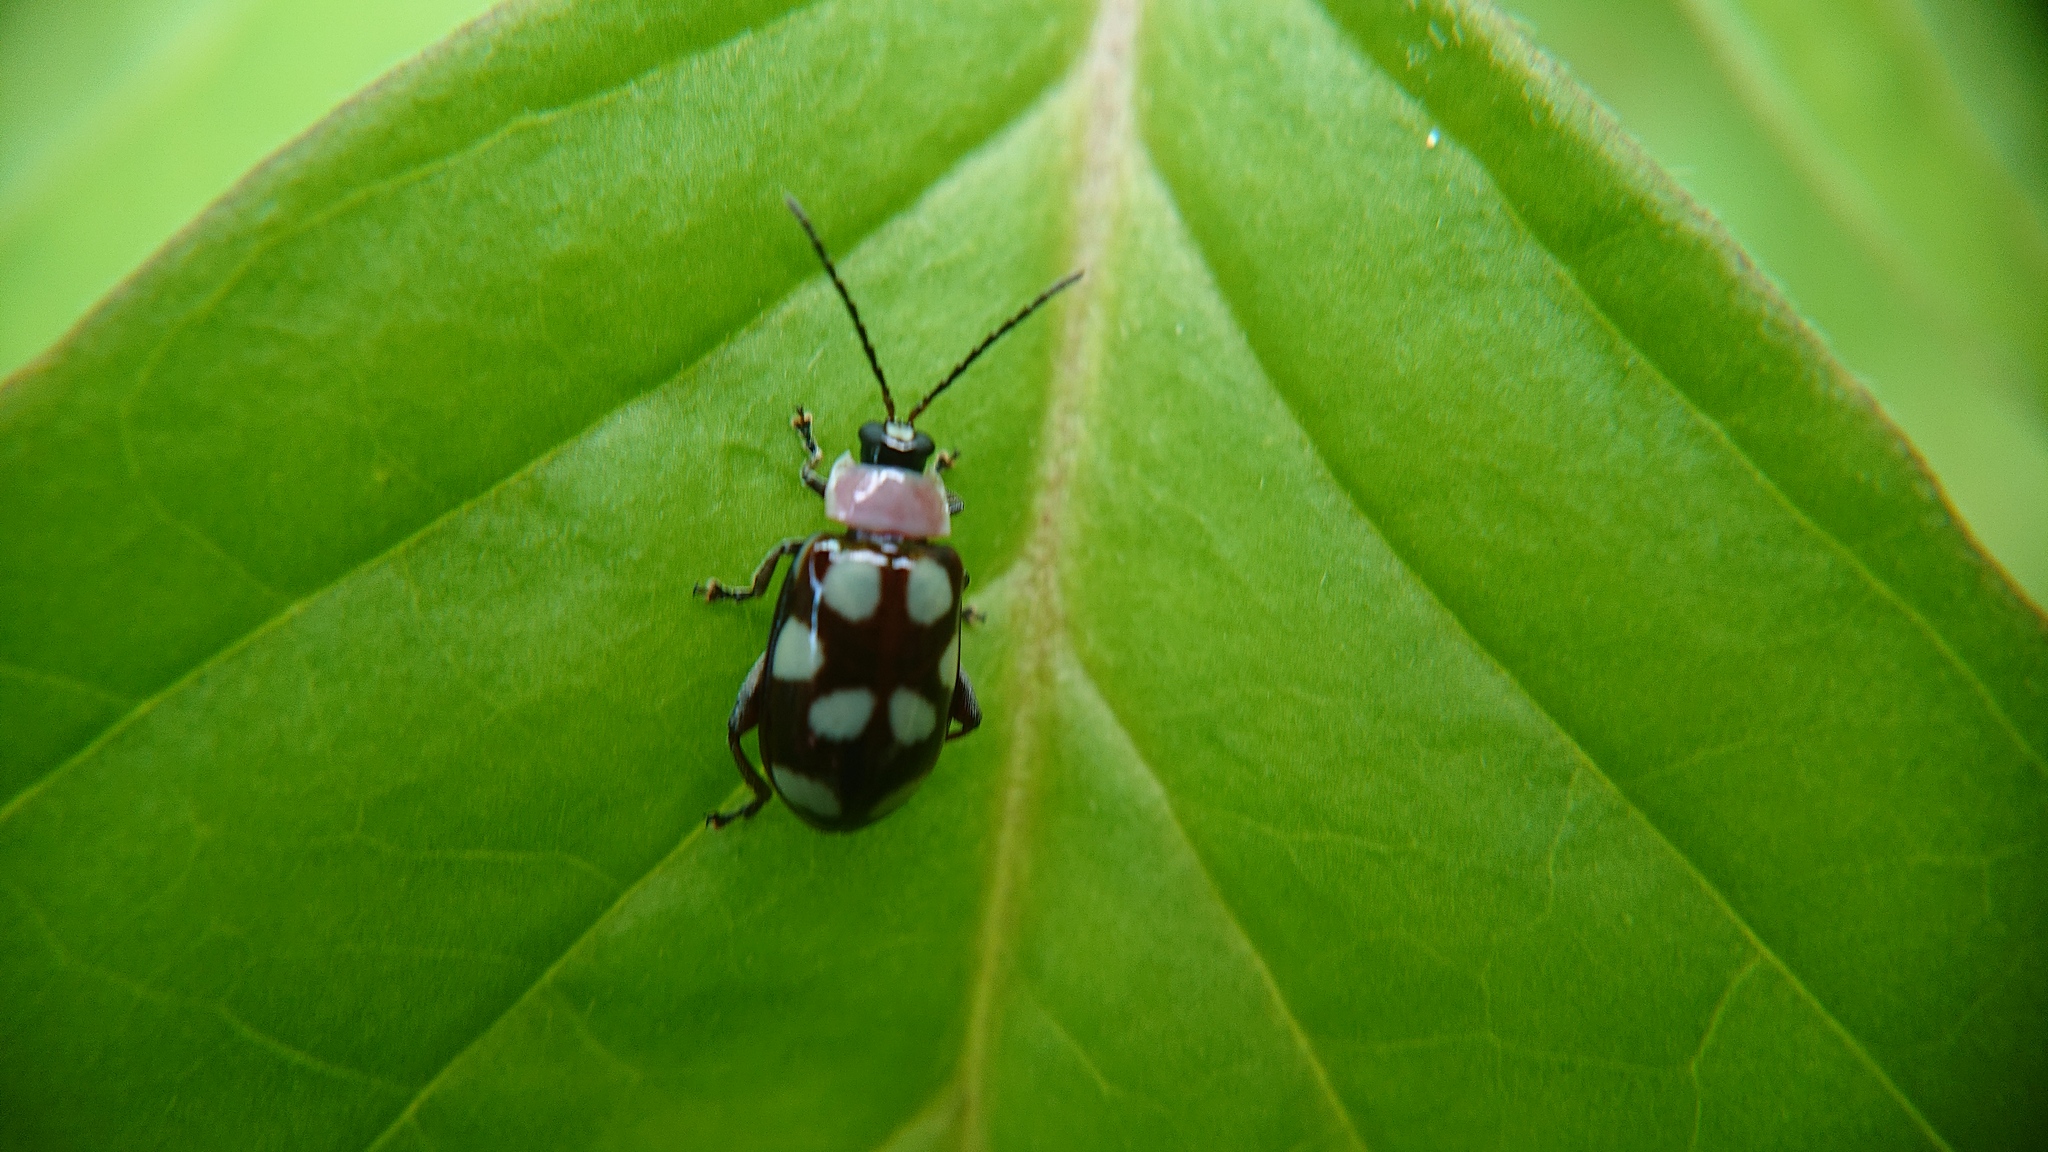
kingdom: Animalia
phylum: Arthropoda
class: Insecta
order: Coleoptera
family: Chrysomelidae
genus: Omophoita
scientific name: Omophoita aequinoctialis
